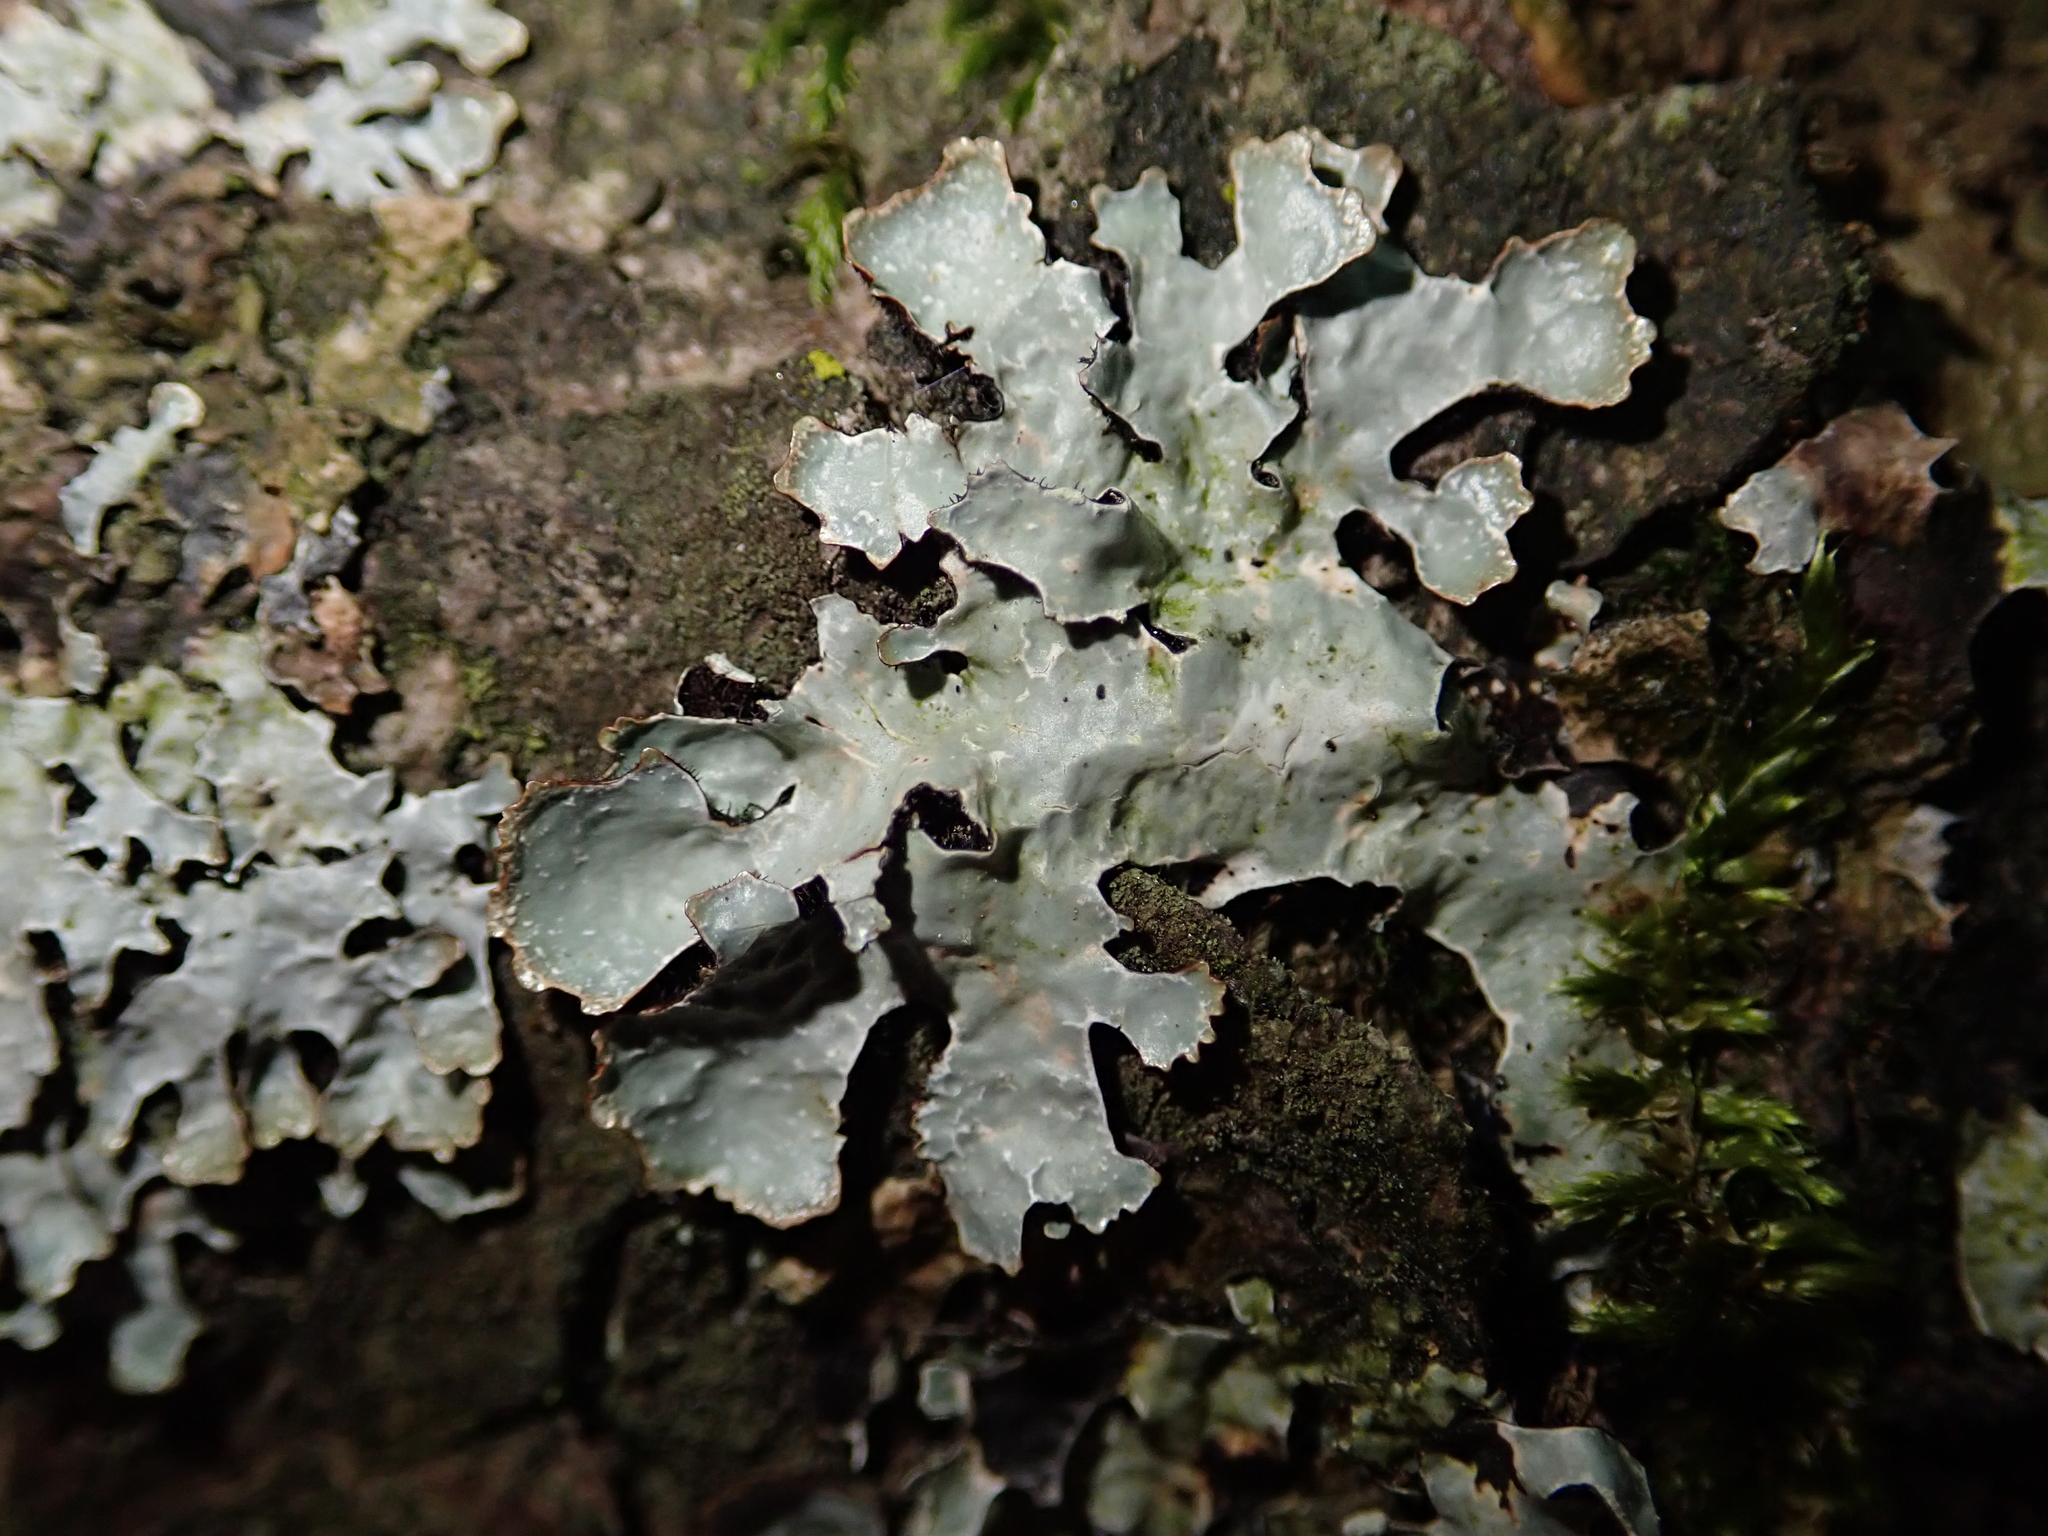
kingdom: Fungi
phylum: Ascomycota
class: Lecanoromycetes
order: Lecanorales
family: Parmeliaceae
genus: Parmelia
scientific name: Parmelia sulcata
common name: Netted shield lichen
